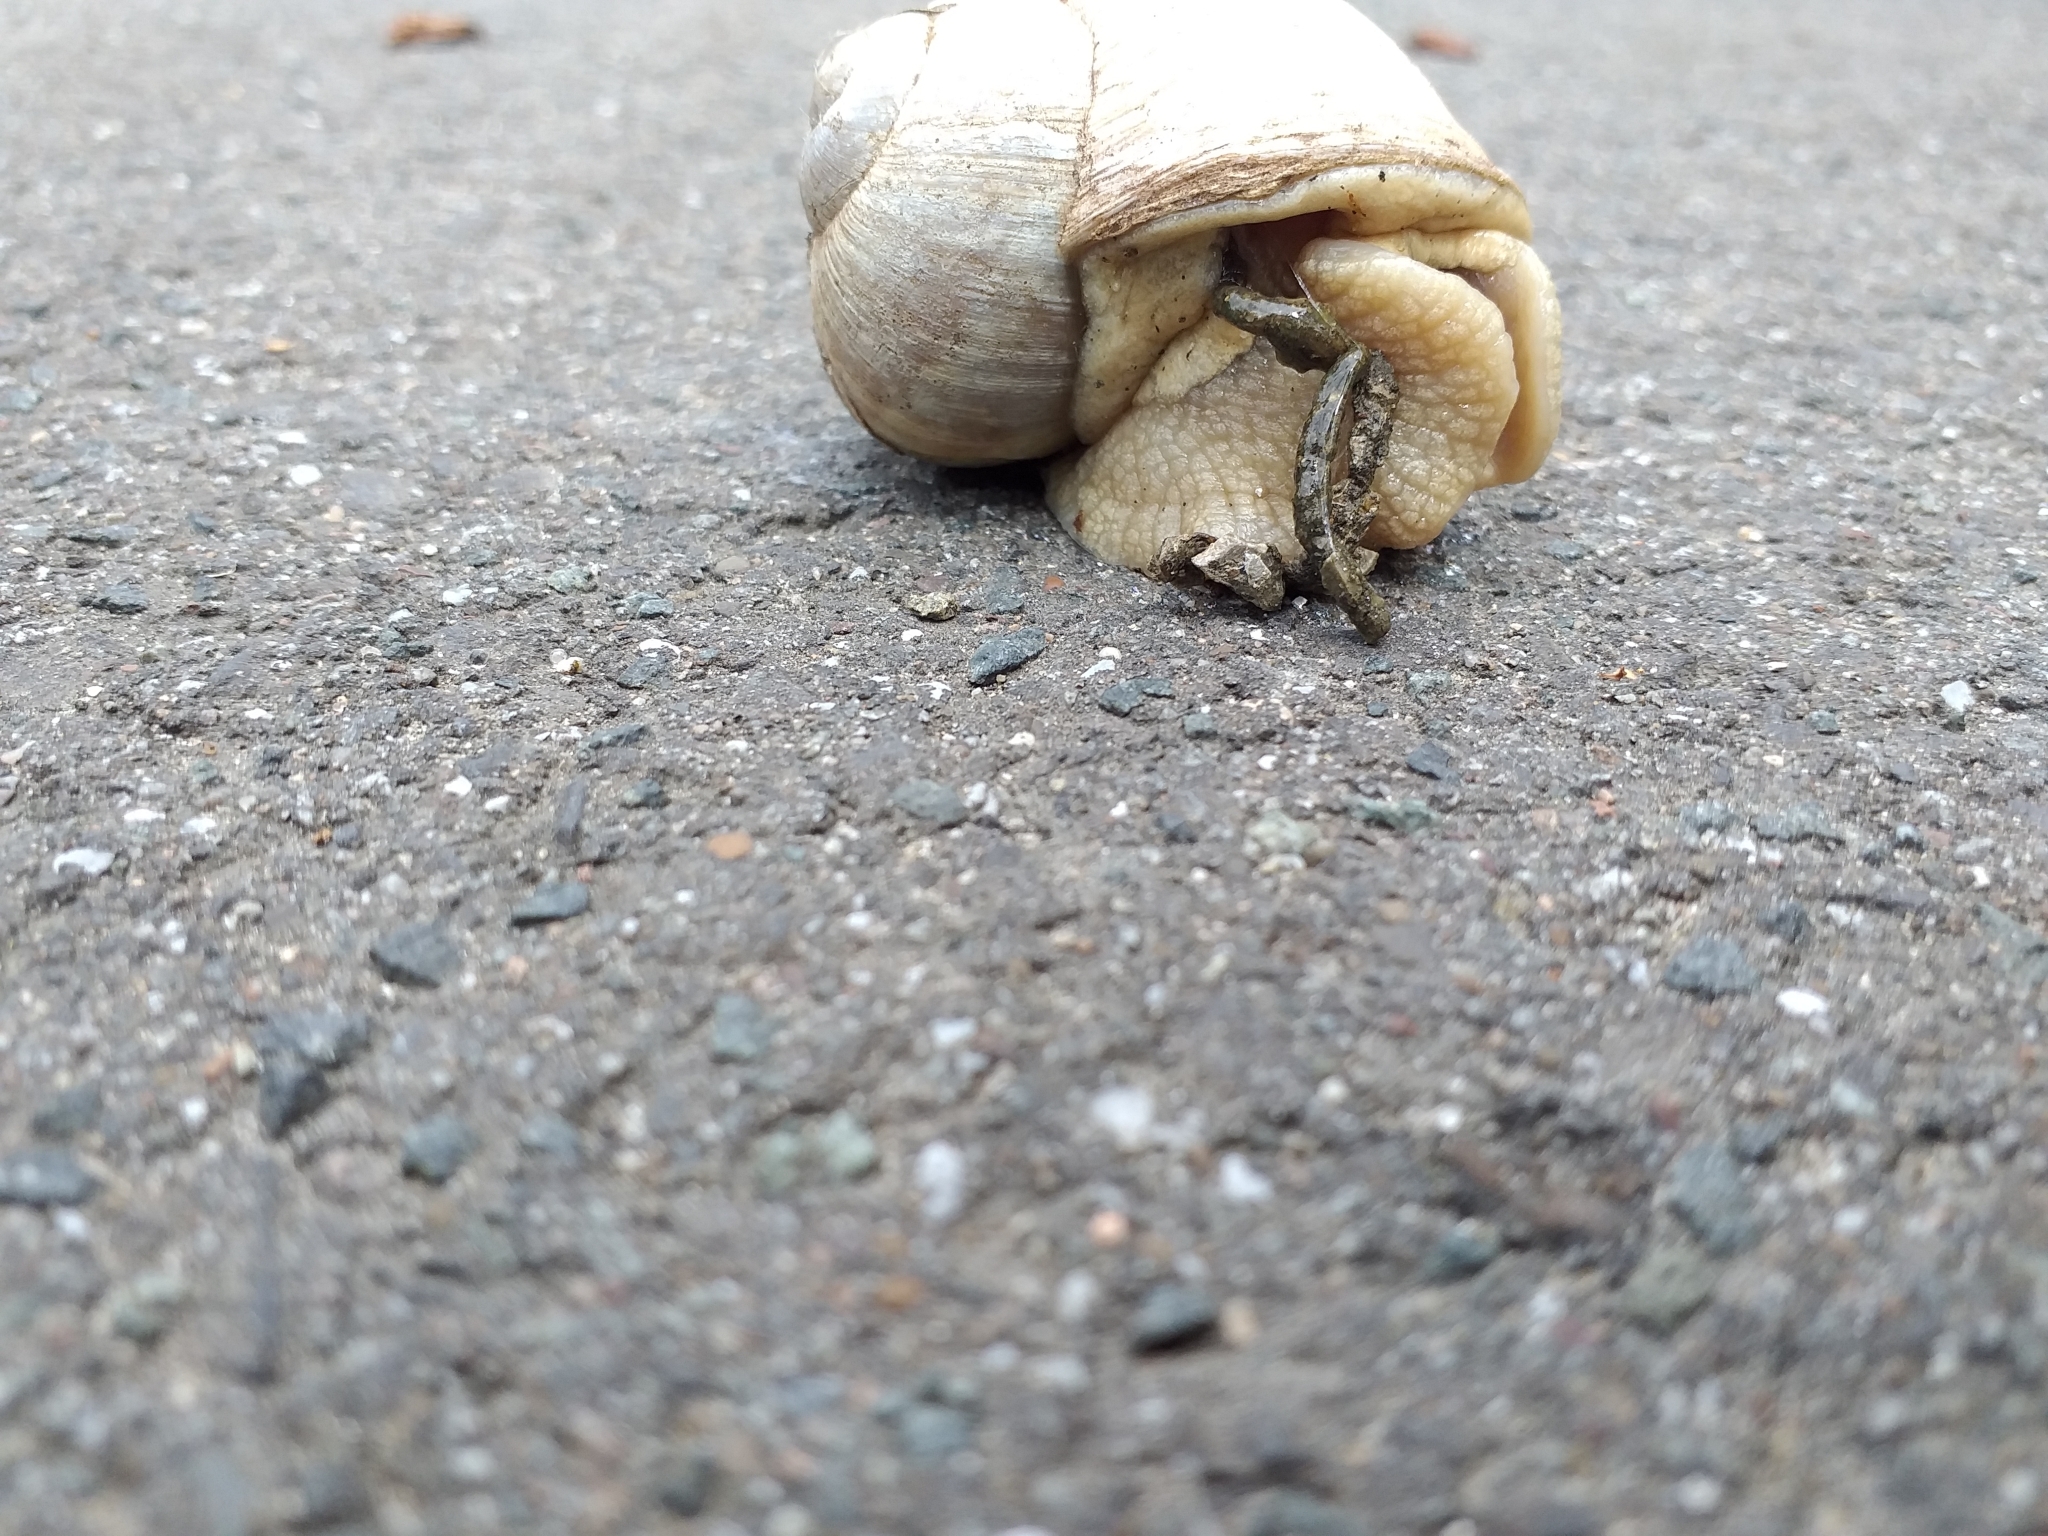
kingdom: Animalia
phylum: Mollusca
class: Gastropoda
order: Stylommatophora
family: Helicidae
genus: Helix
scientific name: Helix pomatia
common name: Roman snail
